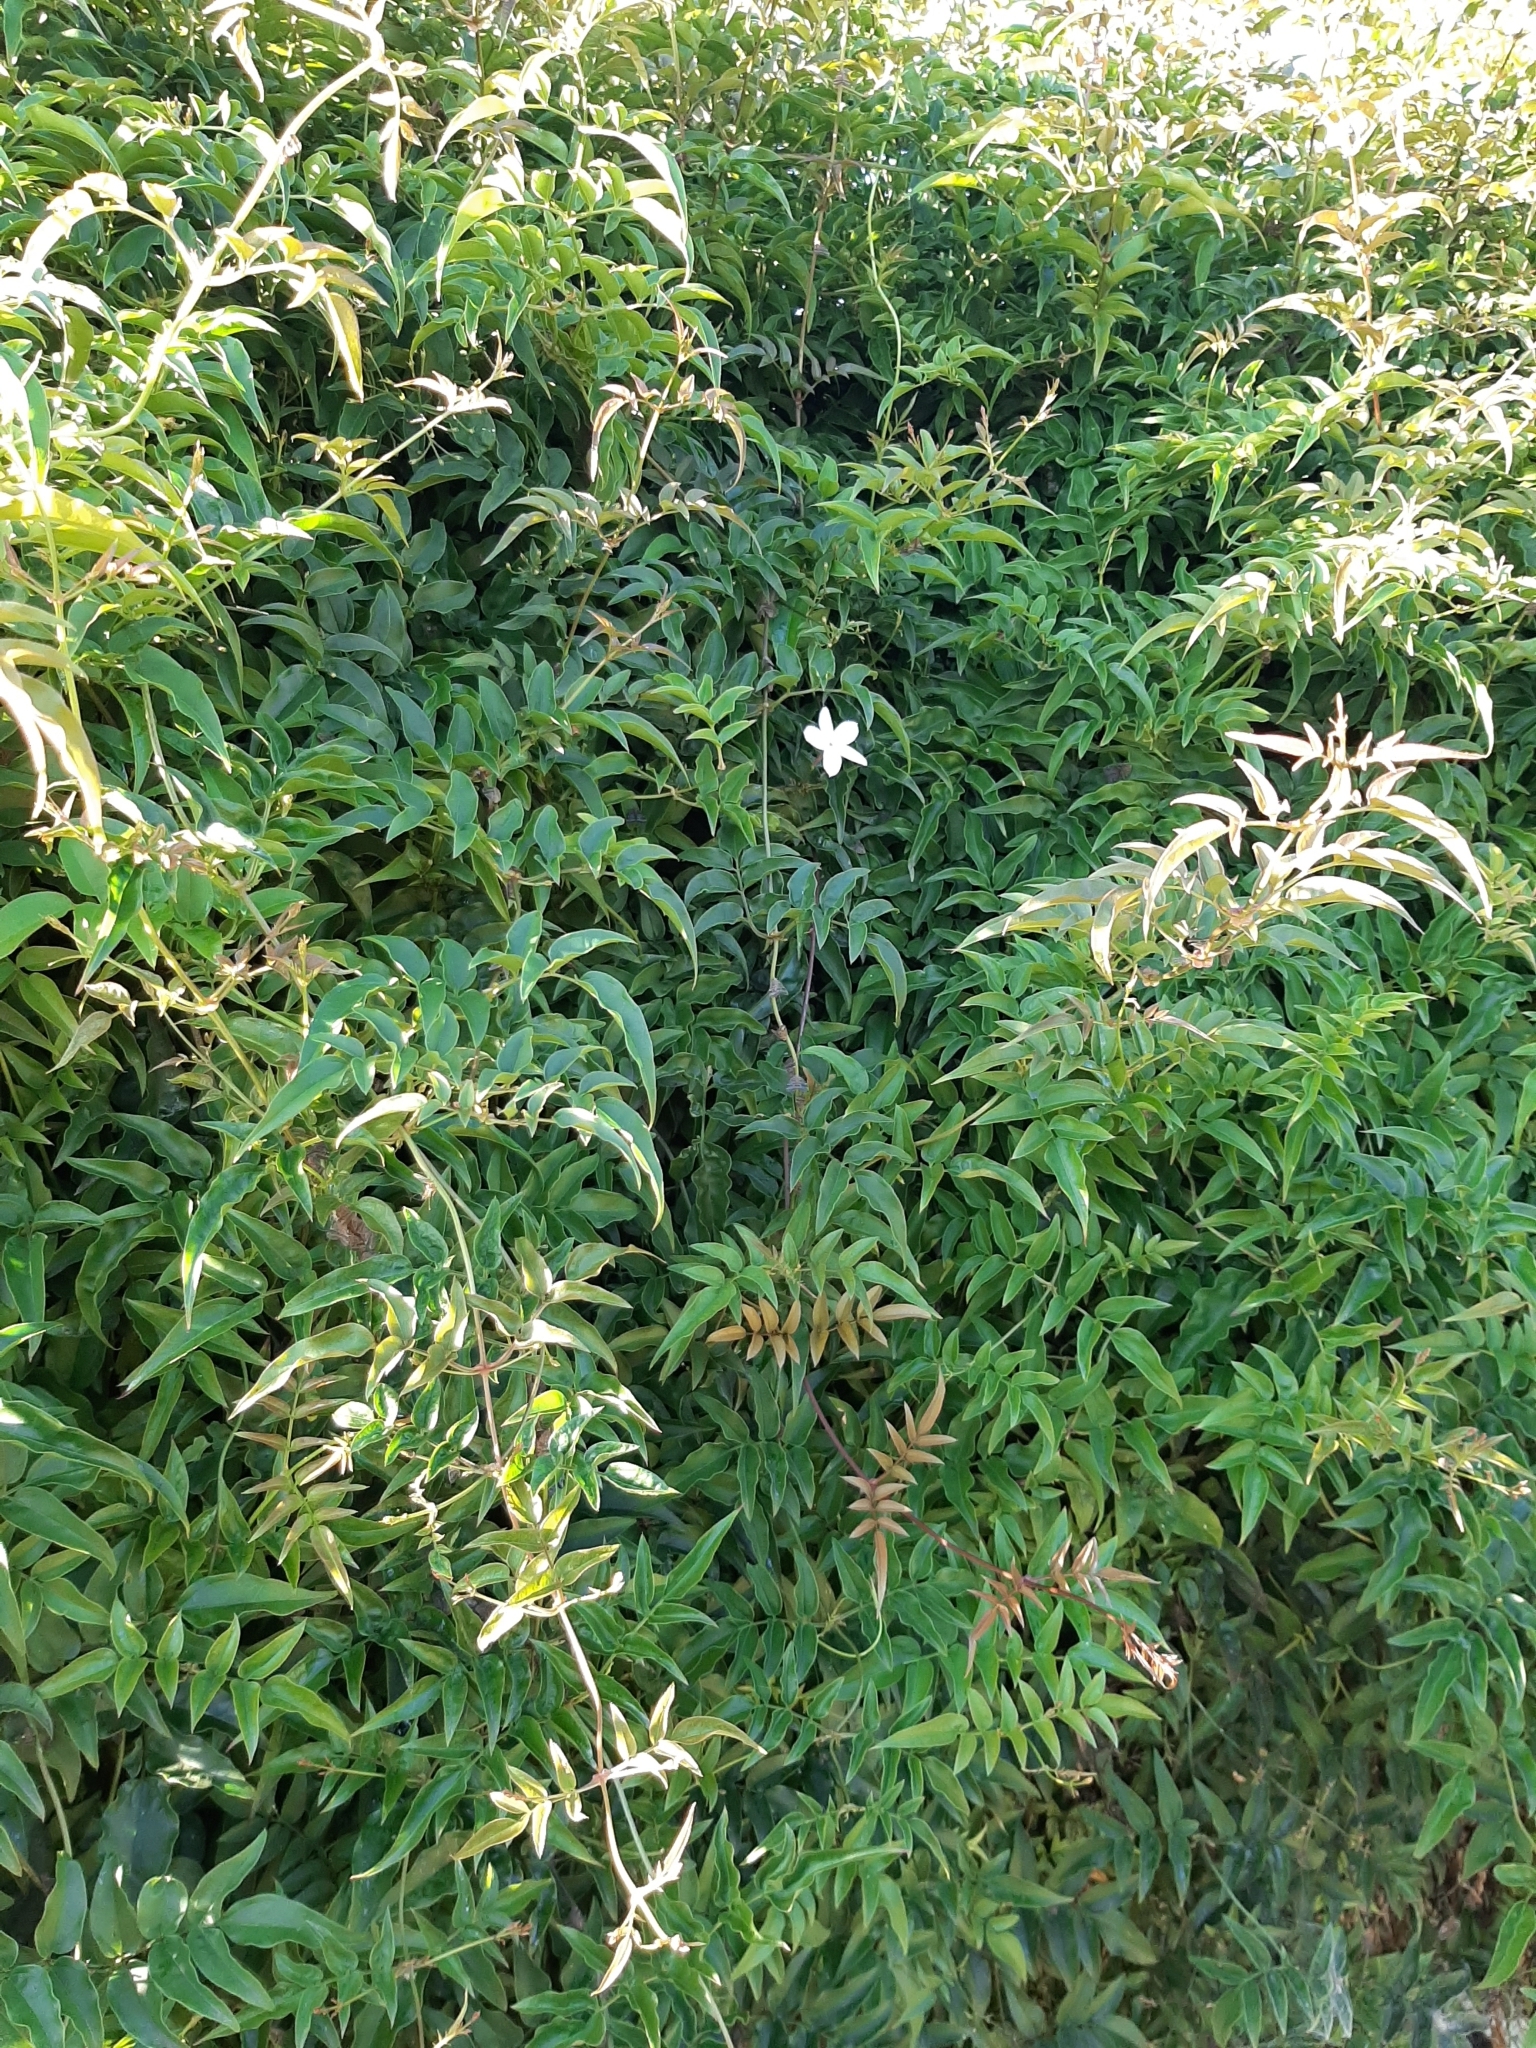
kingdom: Plantae
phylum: Tracheophyta
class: Magnoliopsida
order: Lamiales
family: Oleaceae
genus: Jasminum
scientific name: Jasminum polyanthum
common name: Pink jasmine
